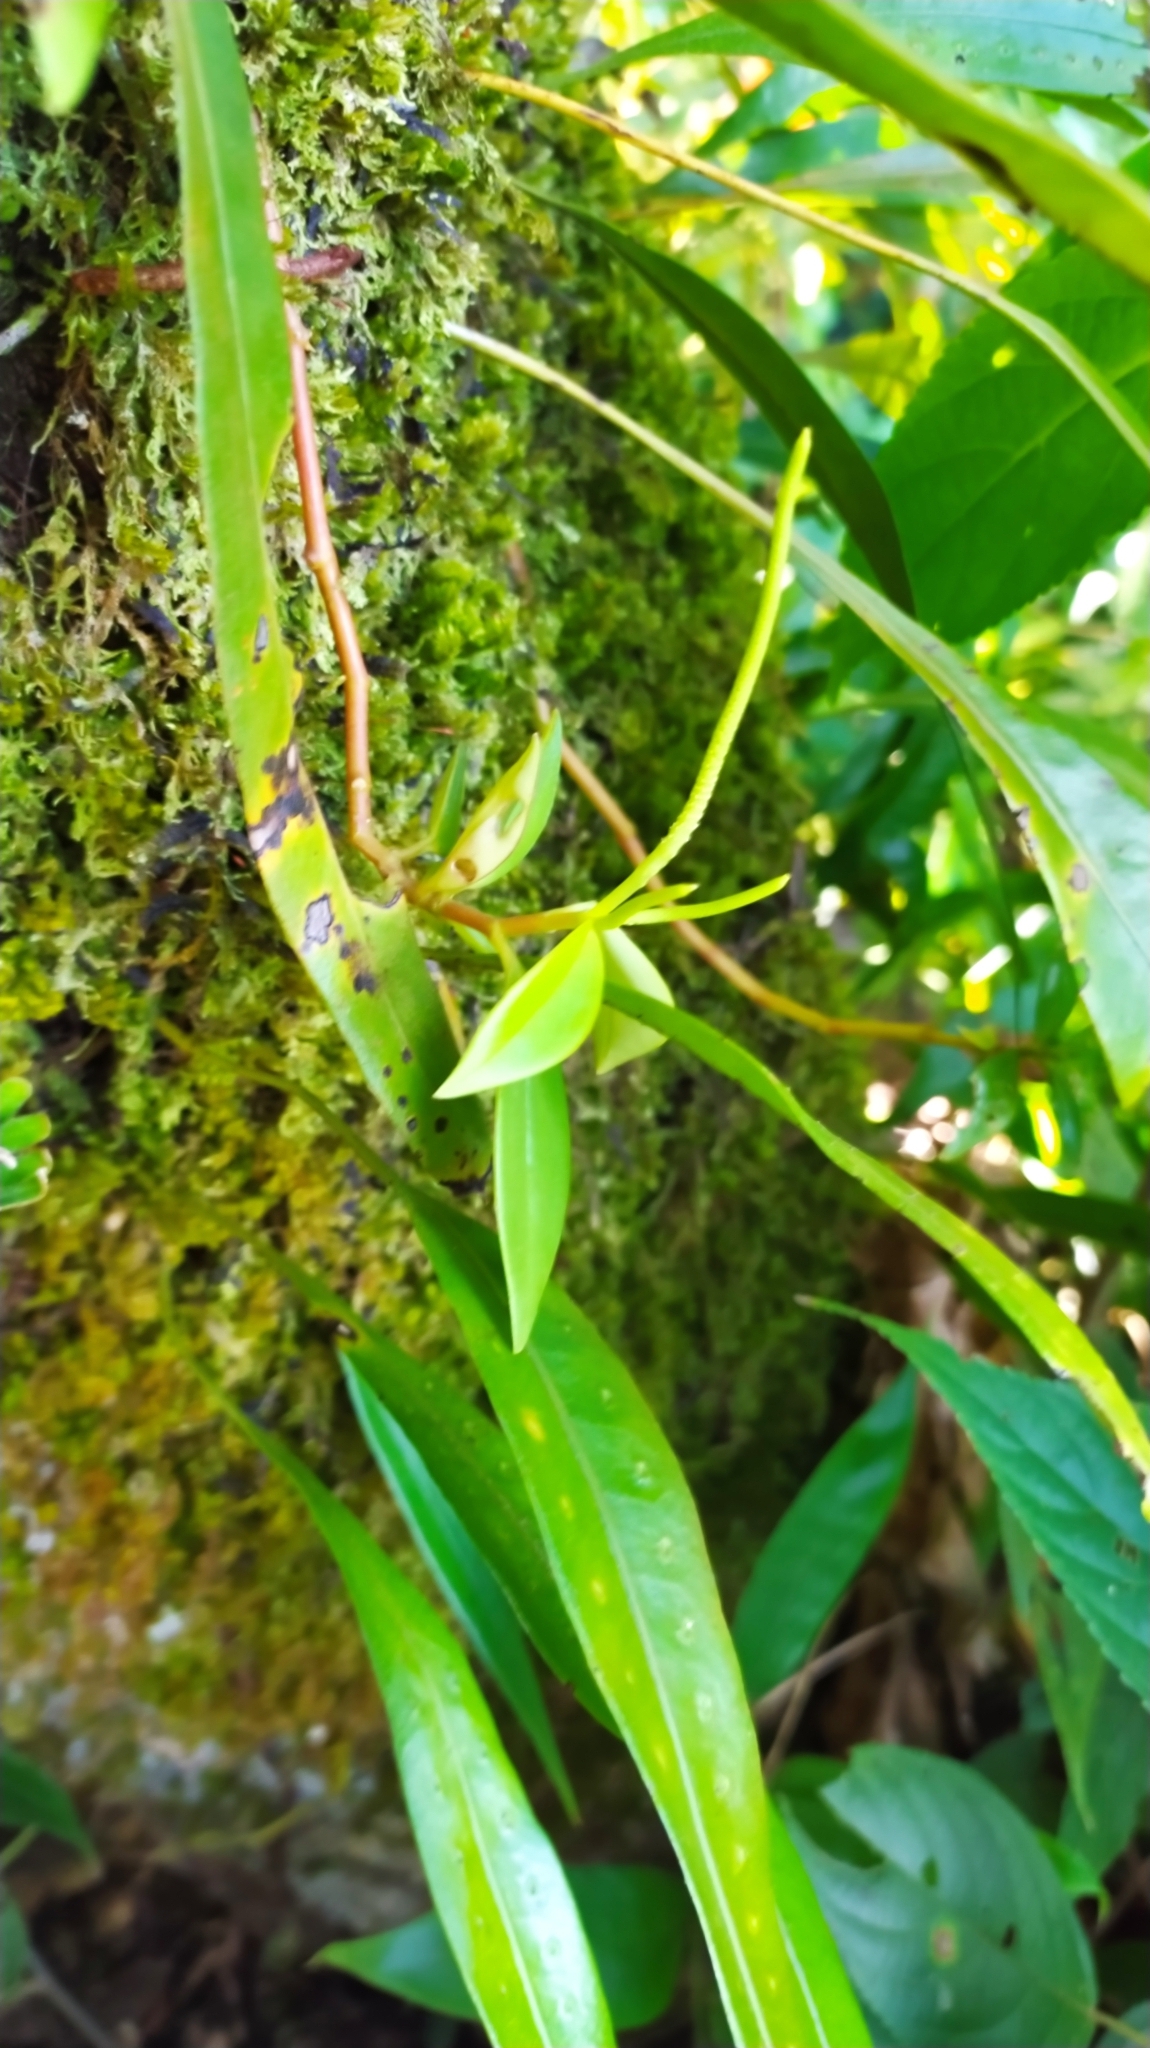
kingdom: Plantae
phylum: Tracheophyta
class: Magnoliopsida
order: Piperales
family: Piperaceae
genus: Peperomia
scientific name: Peperomia glabella
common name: Cypress peperomia
